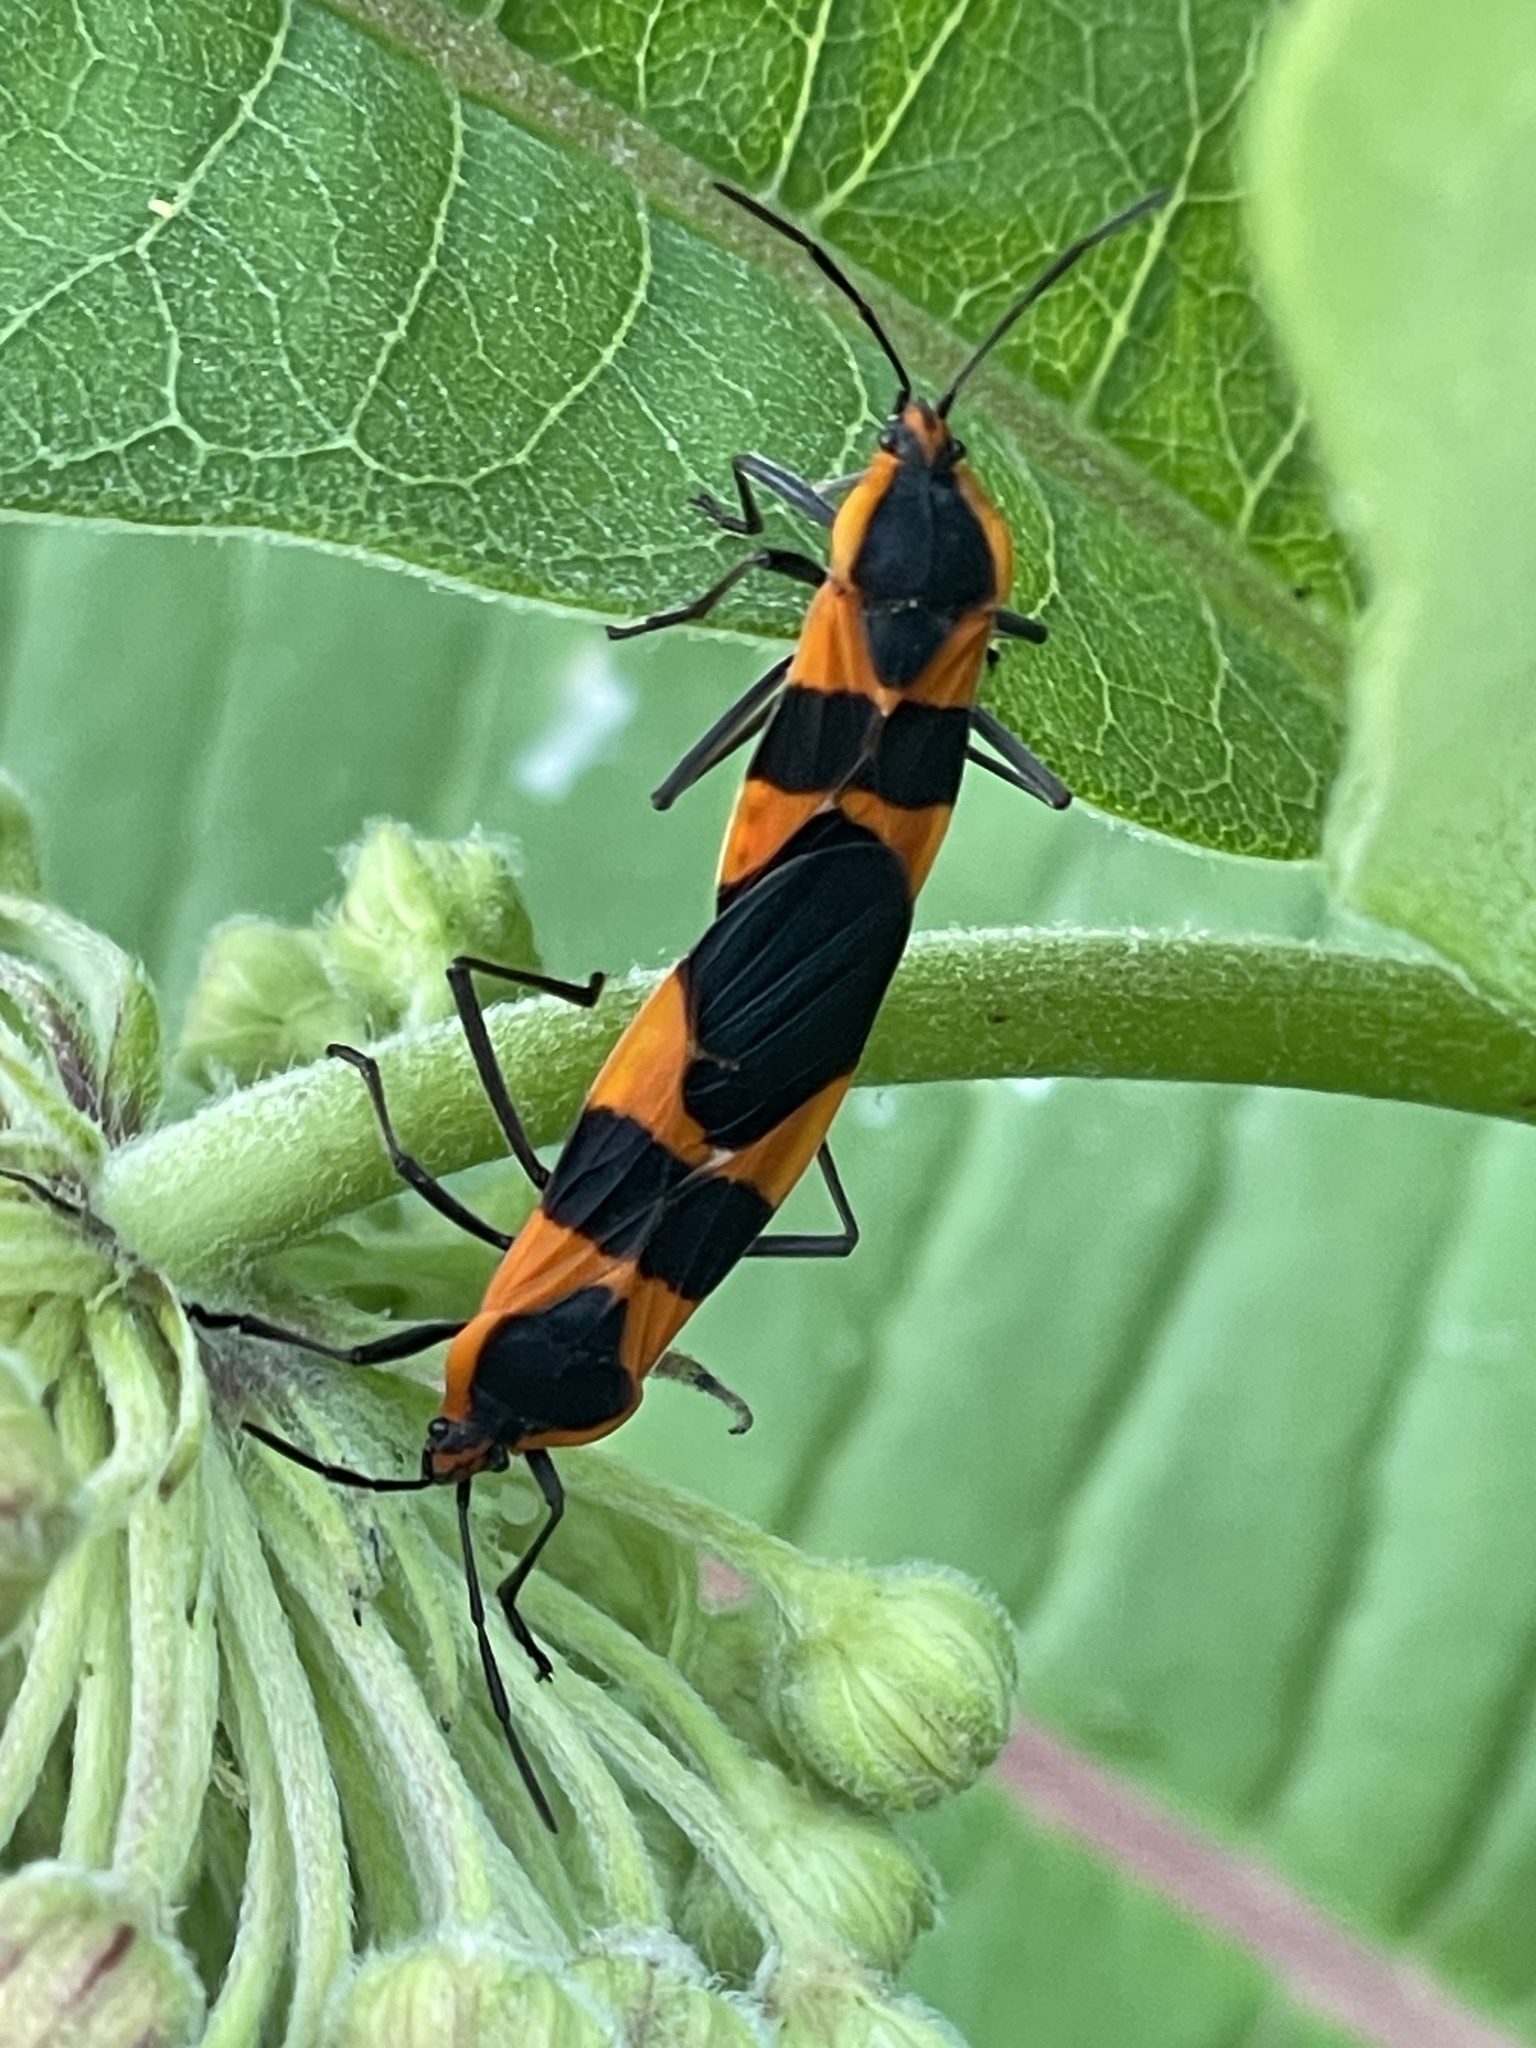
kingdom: Animalia
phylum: Arthropoda
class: Insecta
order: Hemiptera
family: Lygaeidae
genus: Oncopeltus
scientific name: Oncopeltus fasciatus
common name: Large milkweed bug
